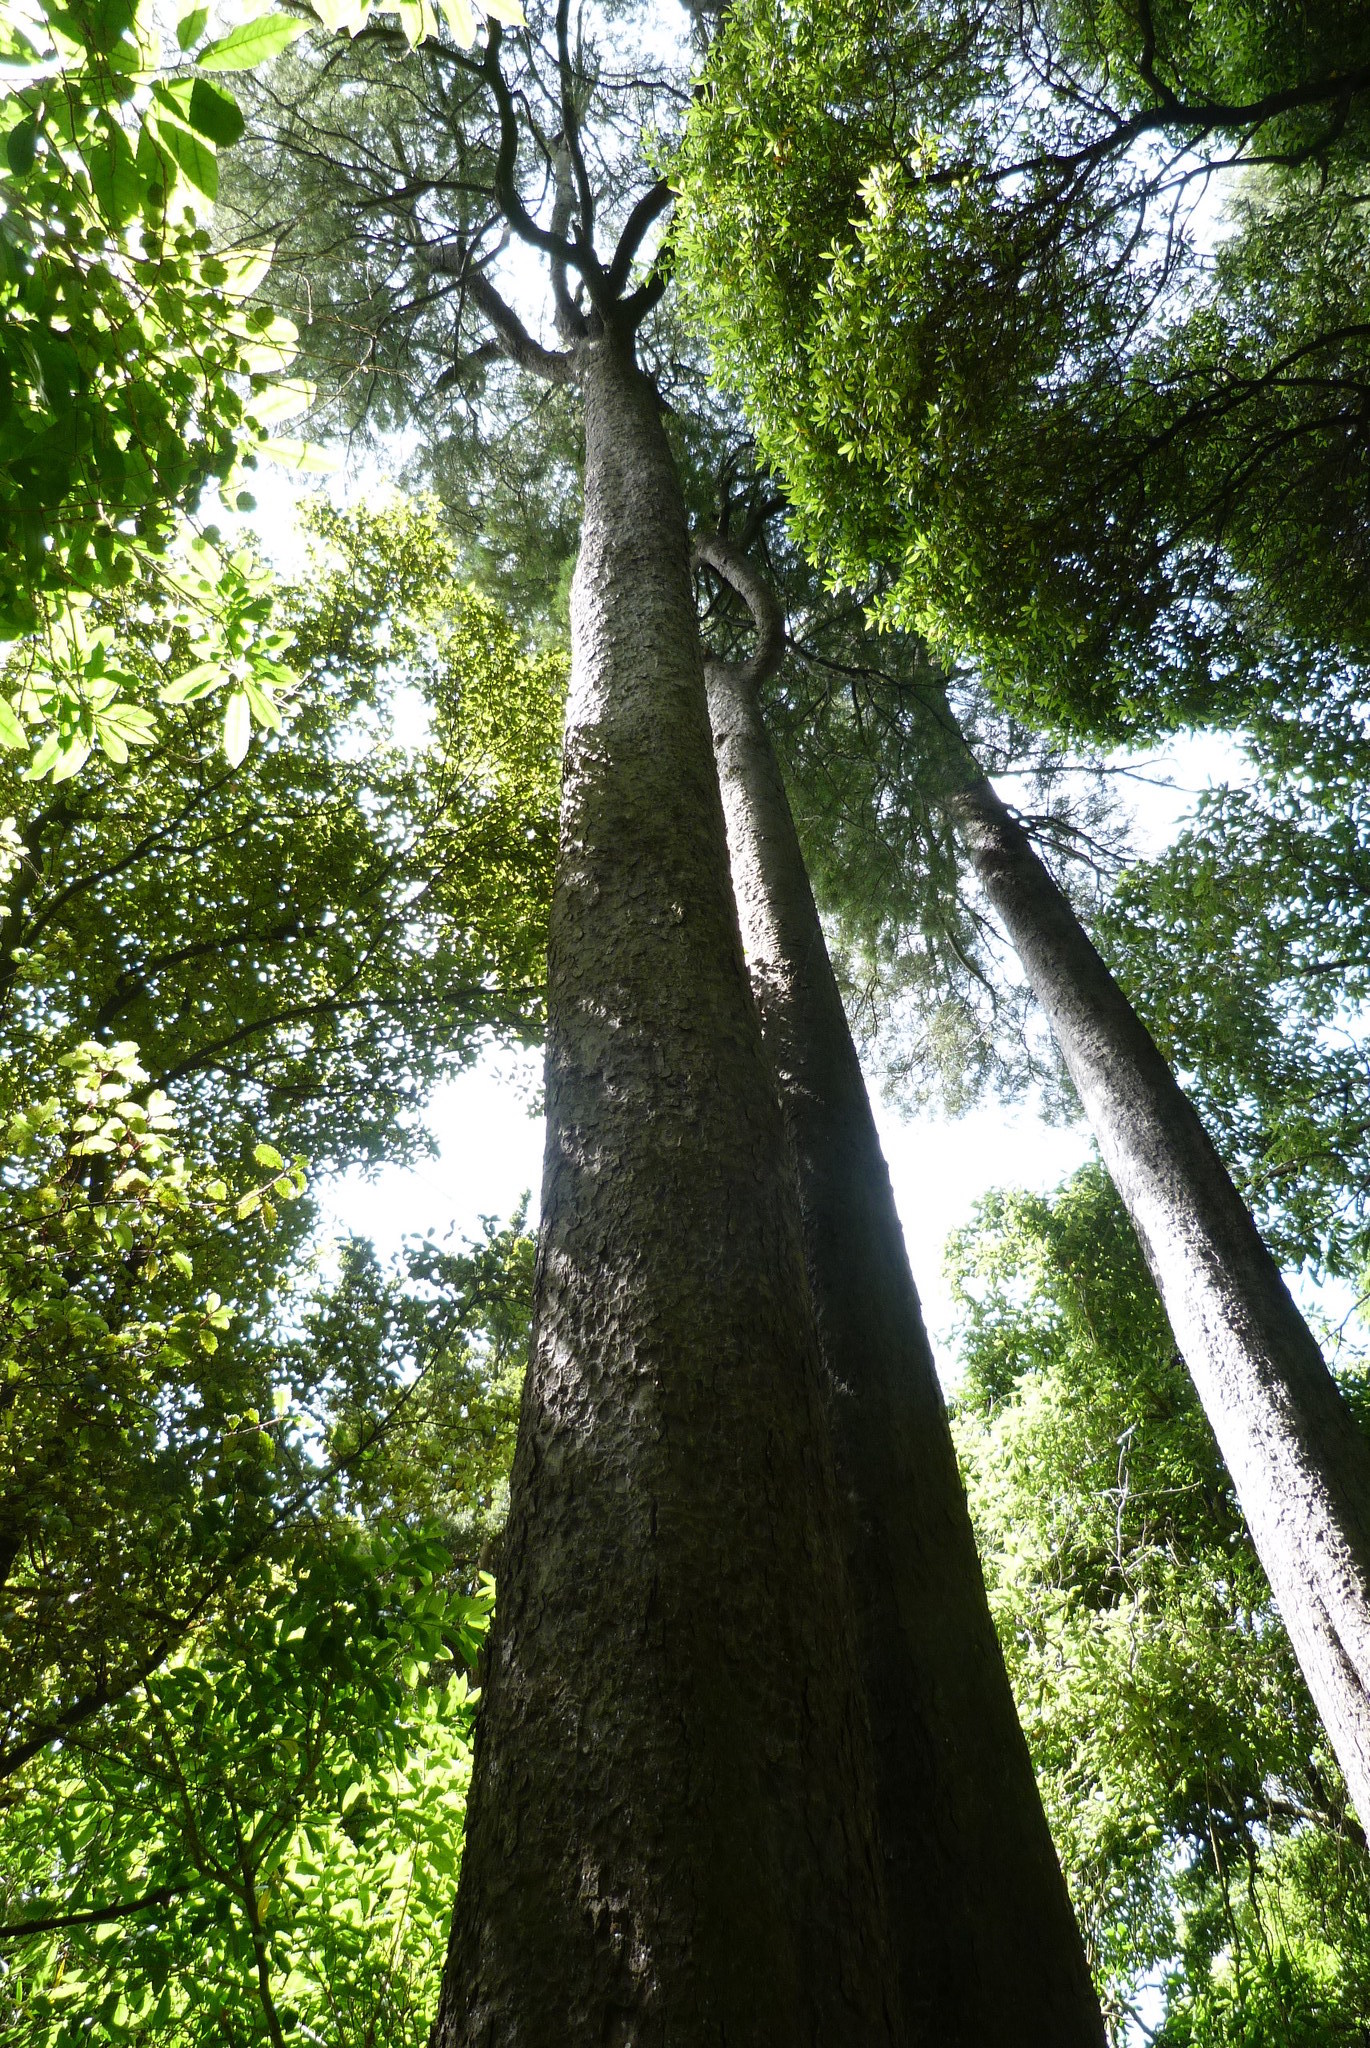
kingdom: Plantae
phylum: Tracheophyta
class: Pinopsida
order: Pinales
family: Podocarpaceae
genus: Dacrycarpus
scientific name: Dacrycarpus dacrydioides
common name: White pine
